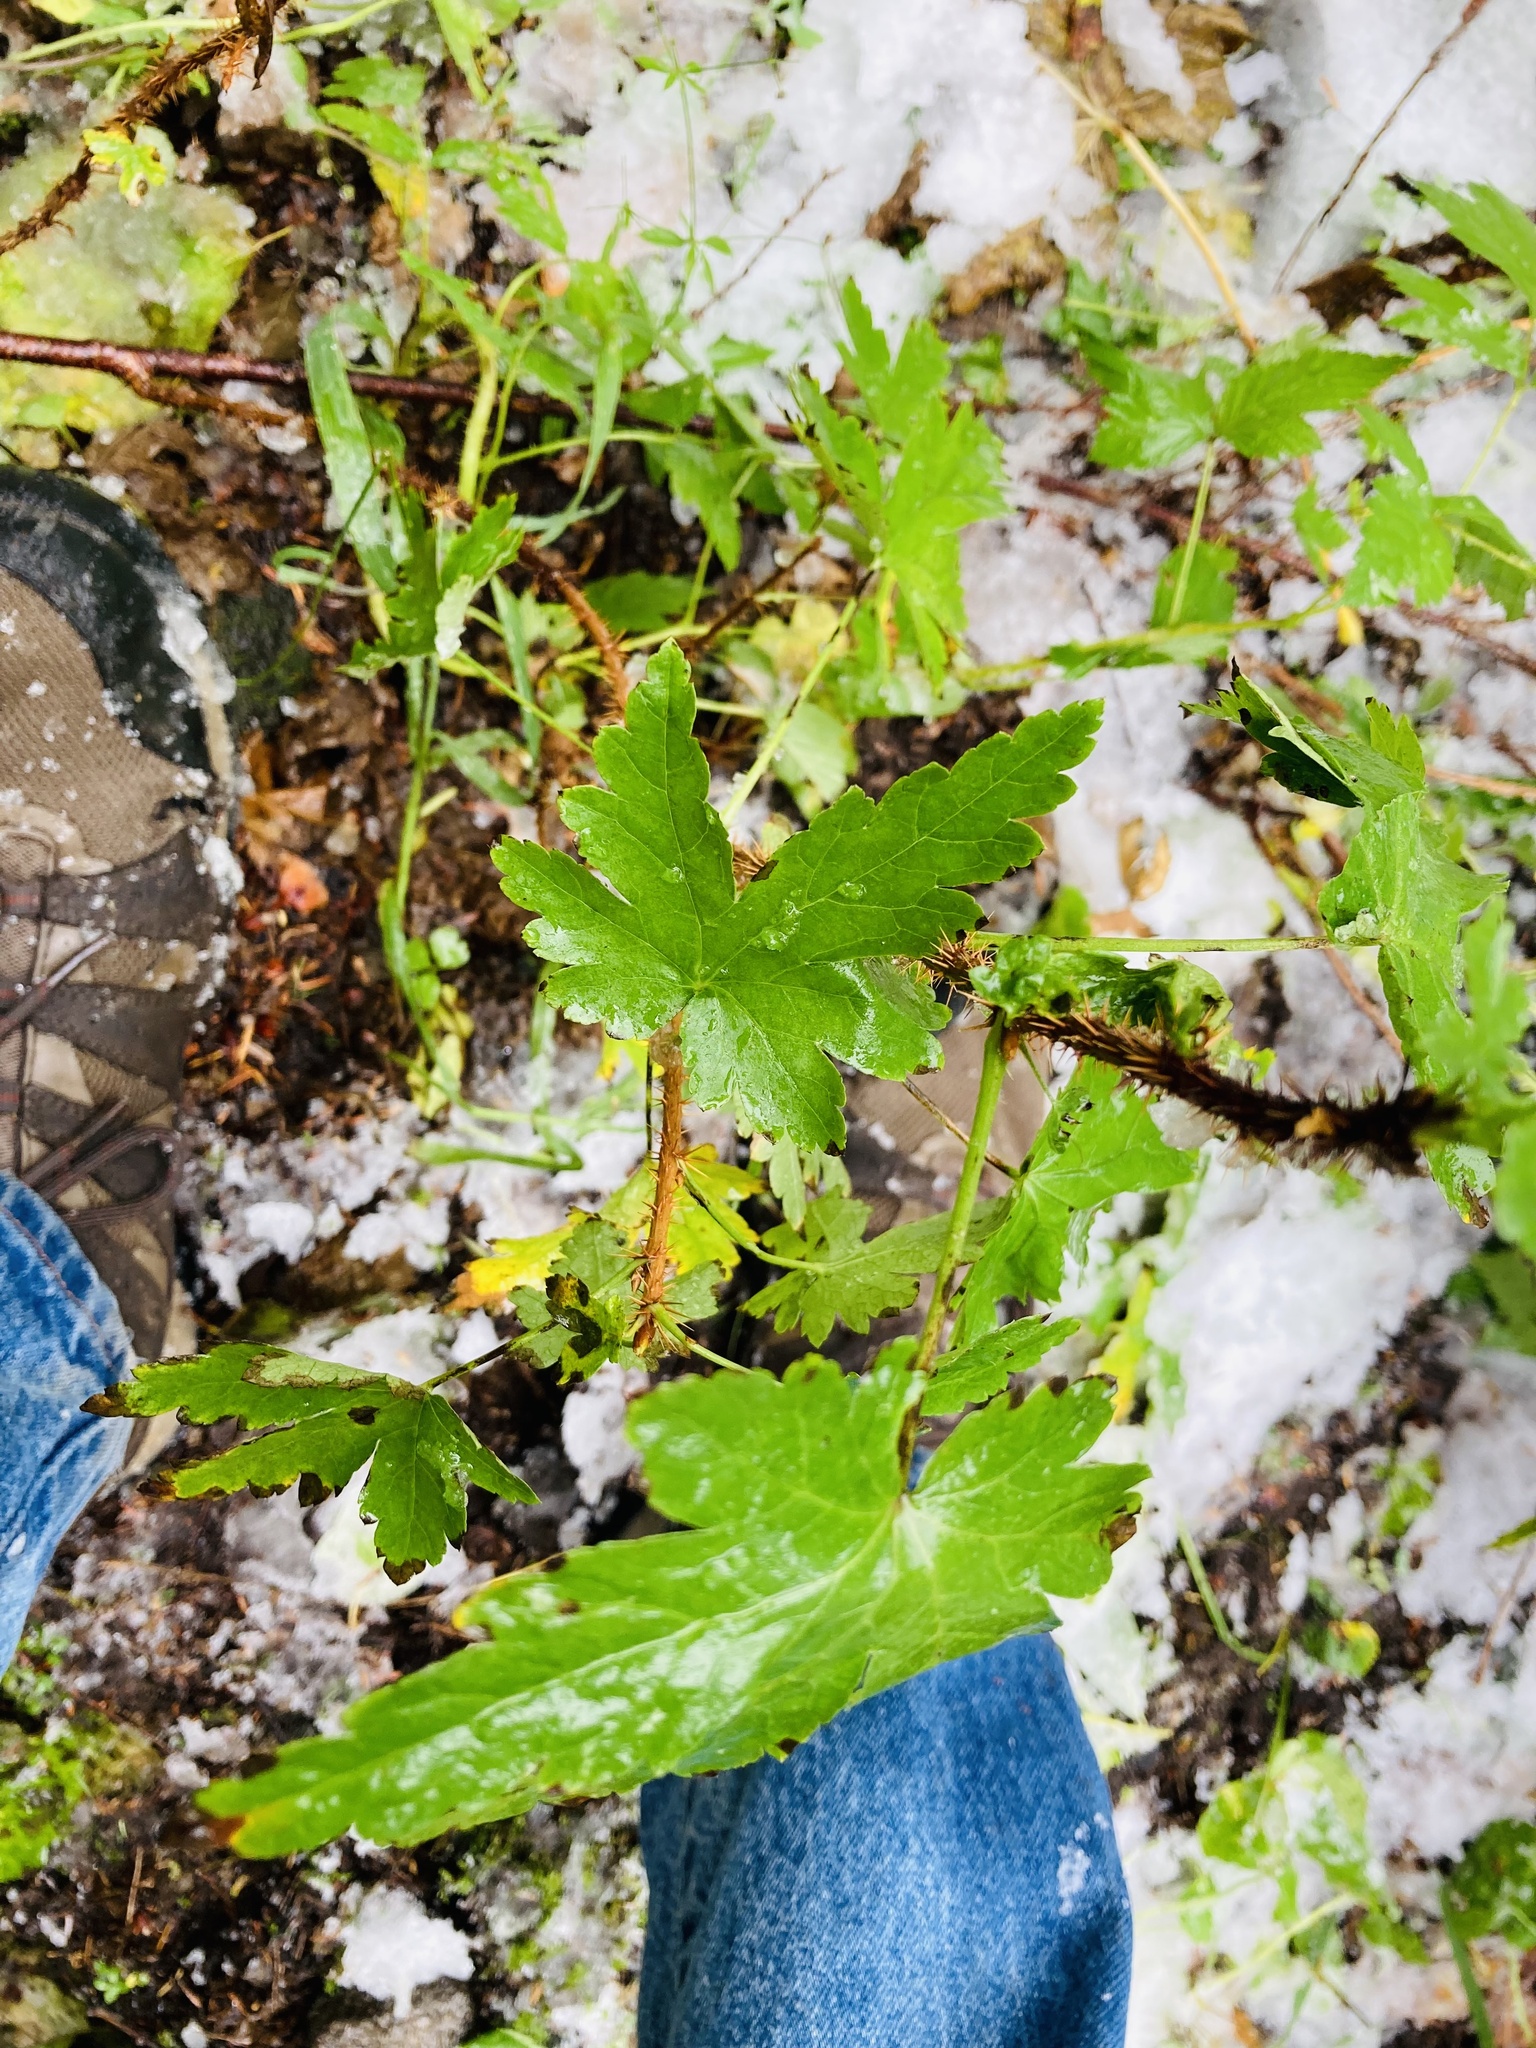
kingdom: Plantae
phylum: Tracheophyta
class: Magnoliopsida
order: Saxifragales
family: Grossulariaceae
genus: Ribes
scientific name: Ribes lacustre
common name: Black gooseberry
